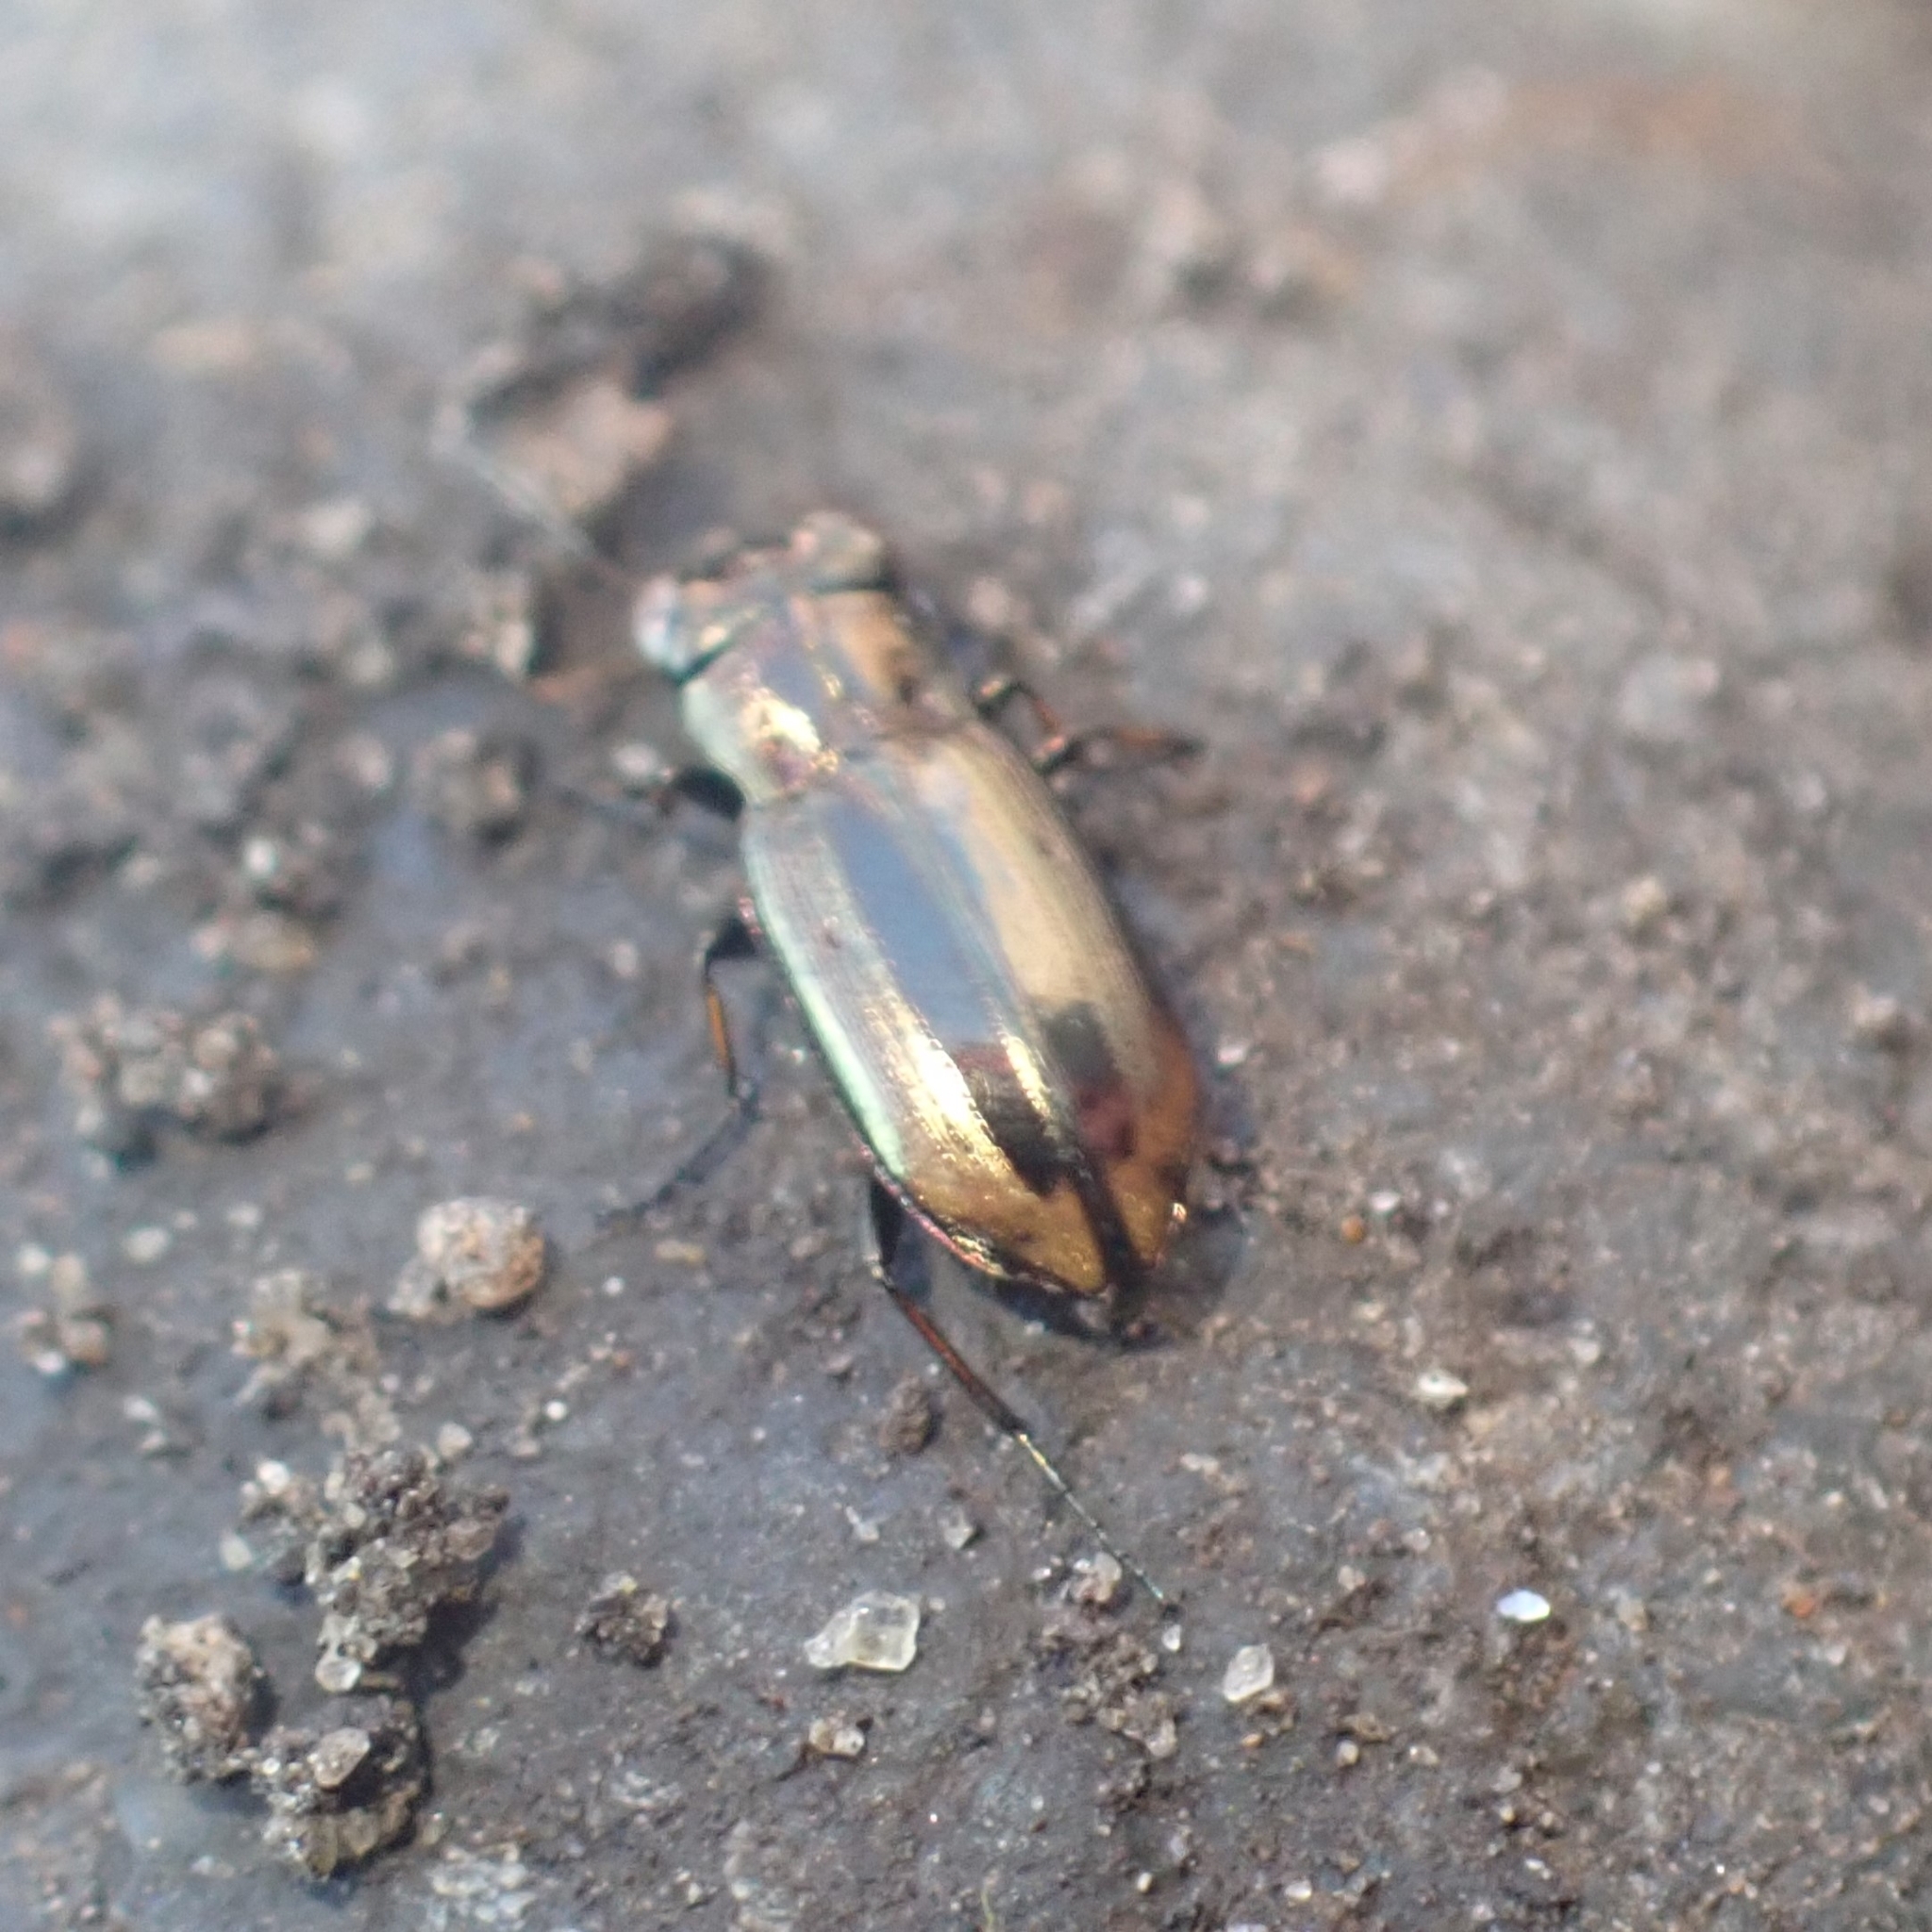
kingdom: Animalia
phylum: Arthropoda
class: Insecta
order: Coleoptera
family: Carabidae
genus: Notiophilus
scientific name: Notiophilus biguttatus
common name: Spotted gazelle beetle
